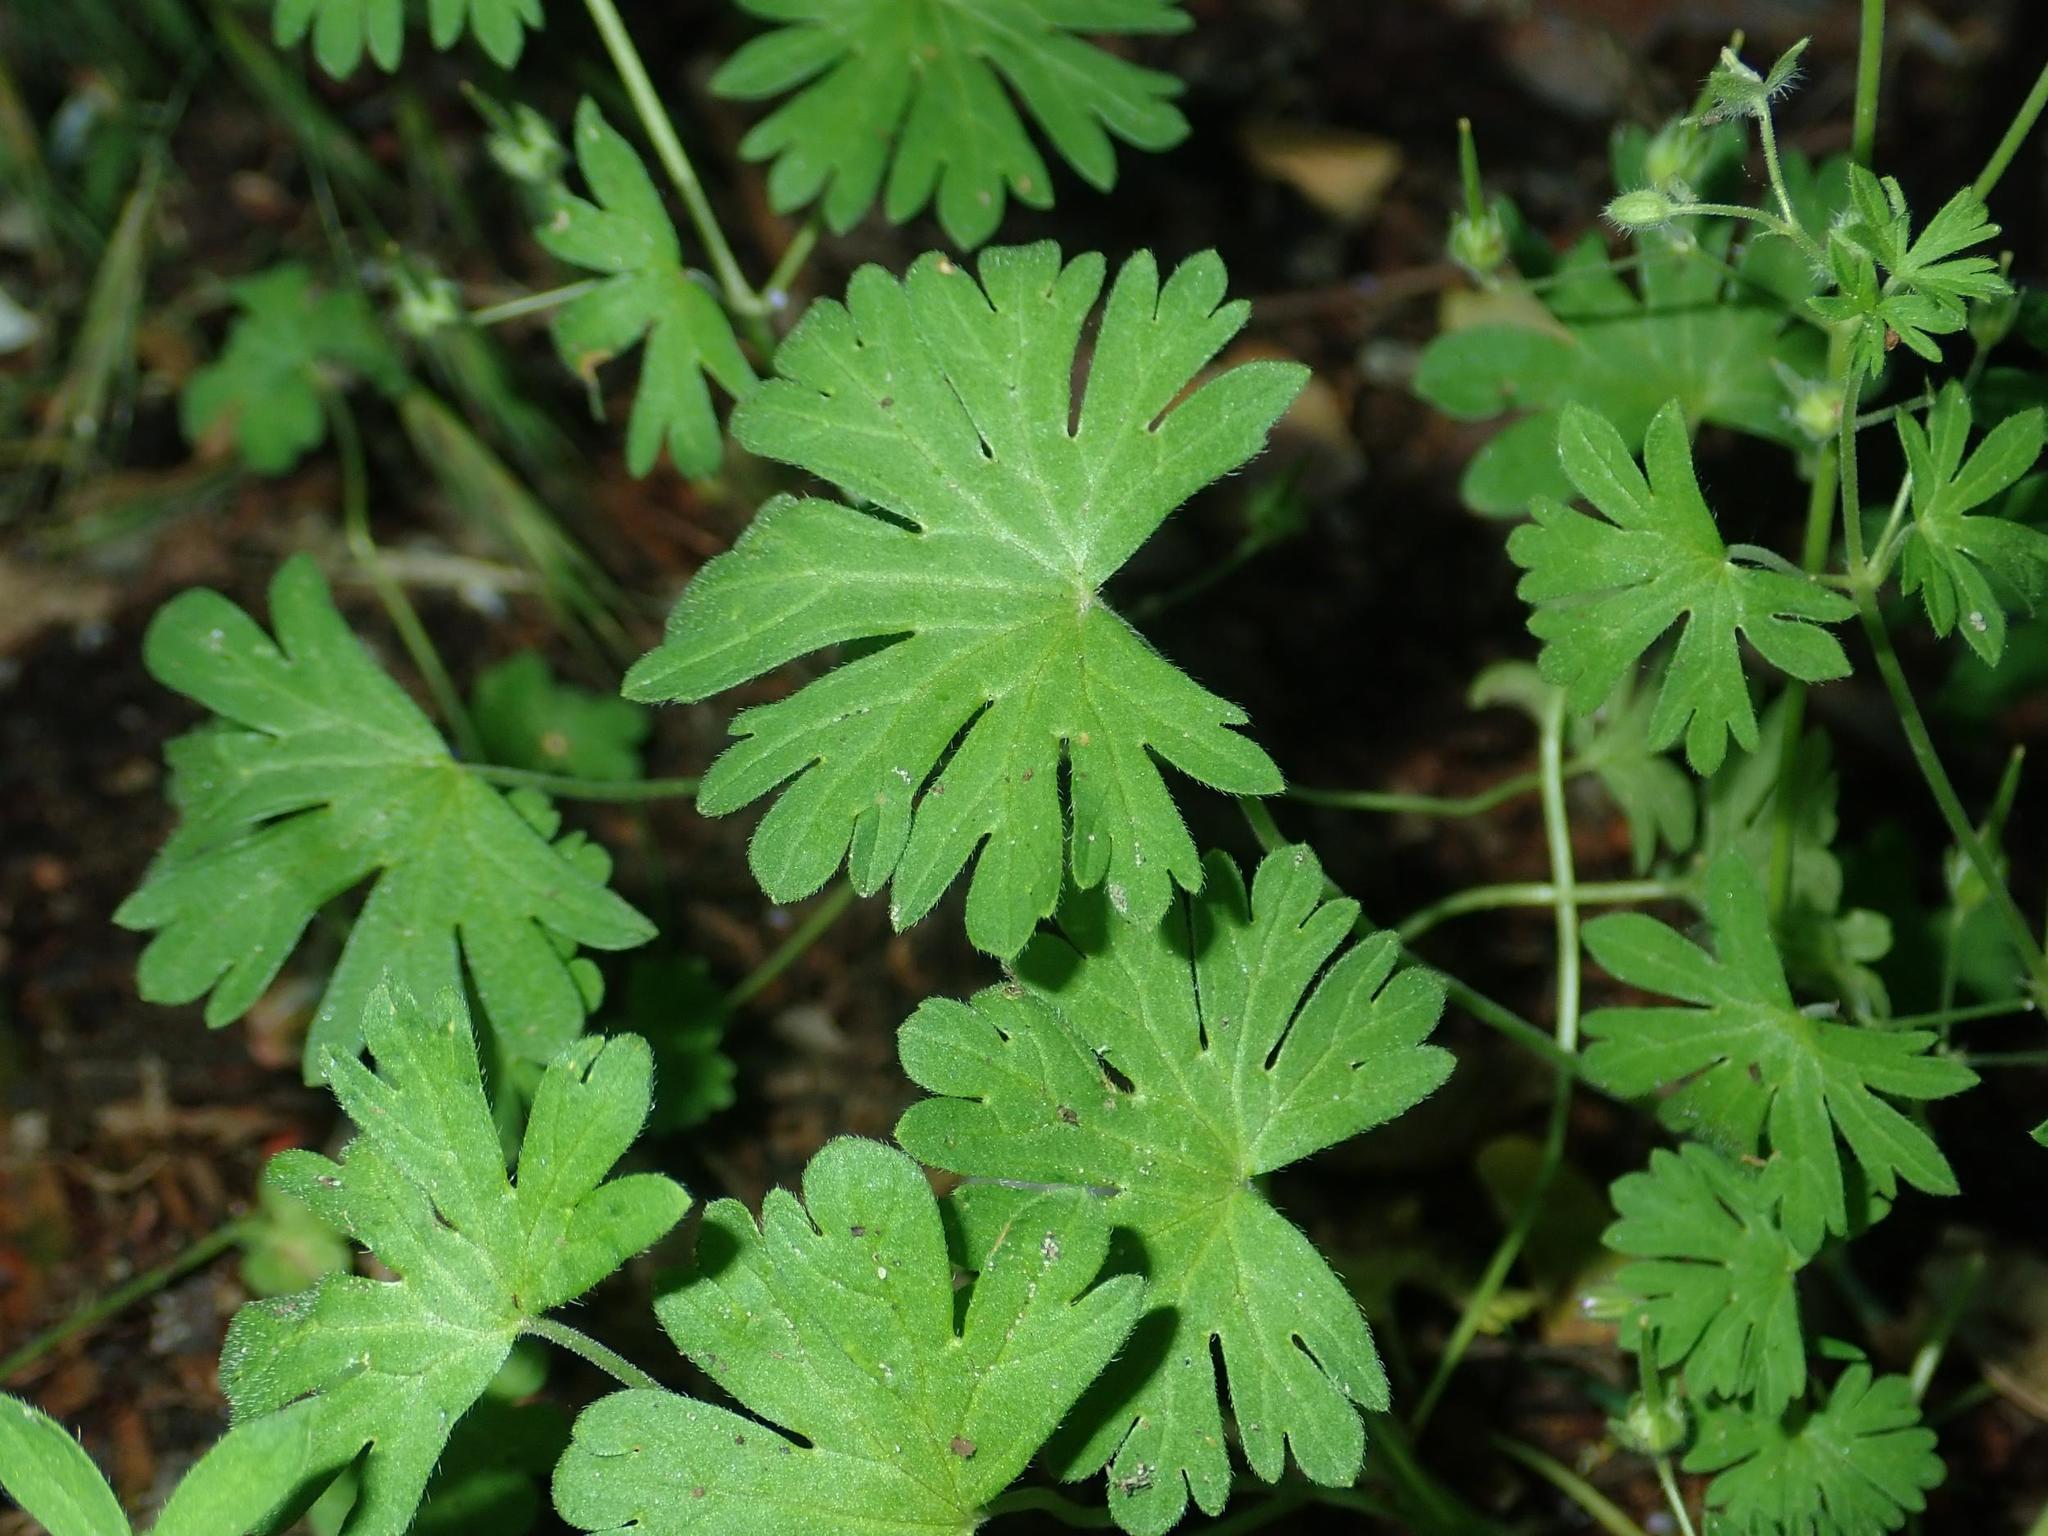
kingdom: Plantae
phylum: Tracheophyta
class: Magnoliopsida
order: Geraniales
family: Geraniaceae
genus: Geranium
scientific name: Geranium pusillum
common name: Small geranium
